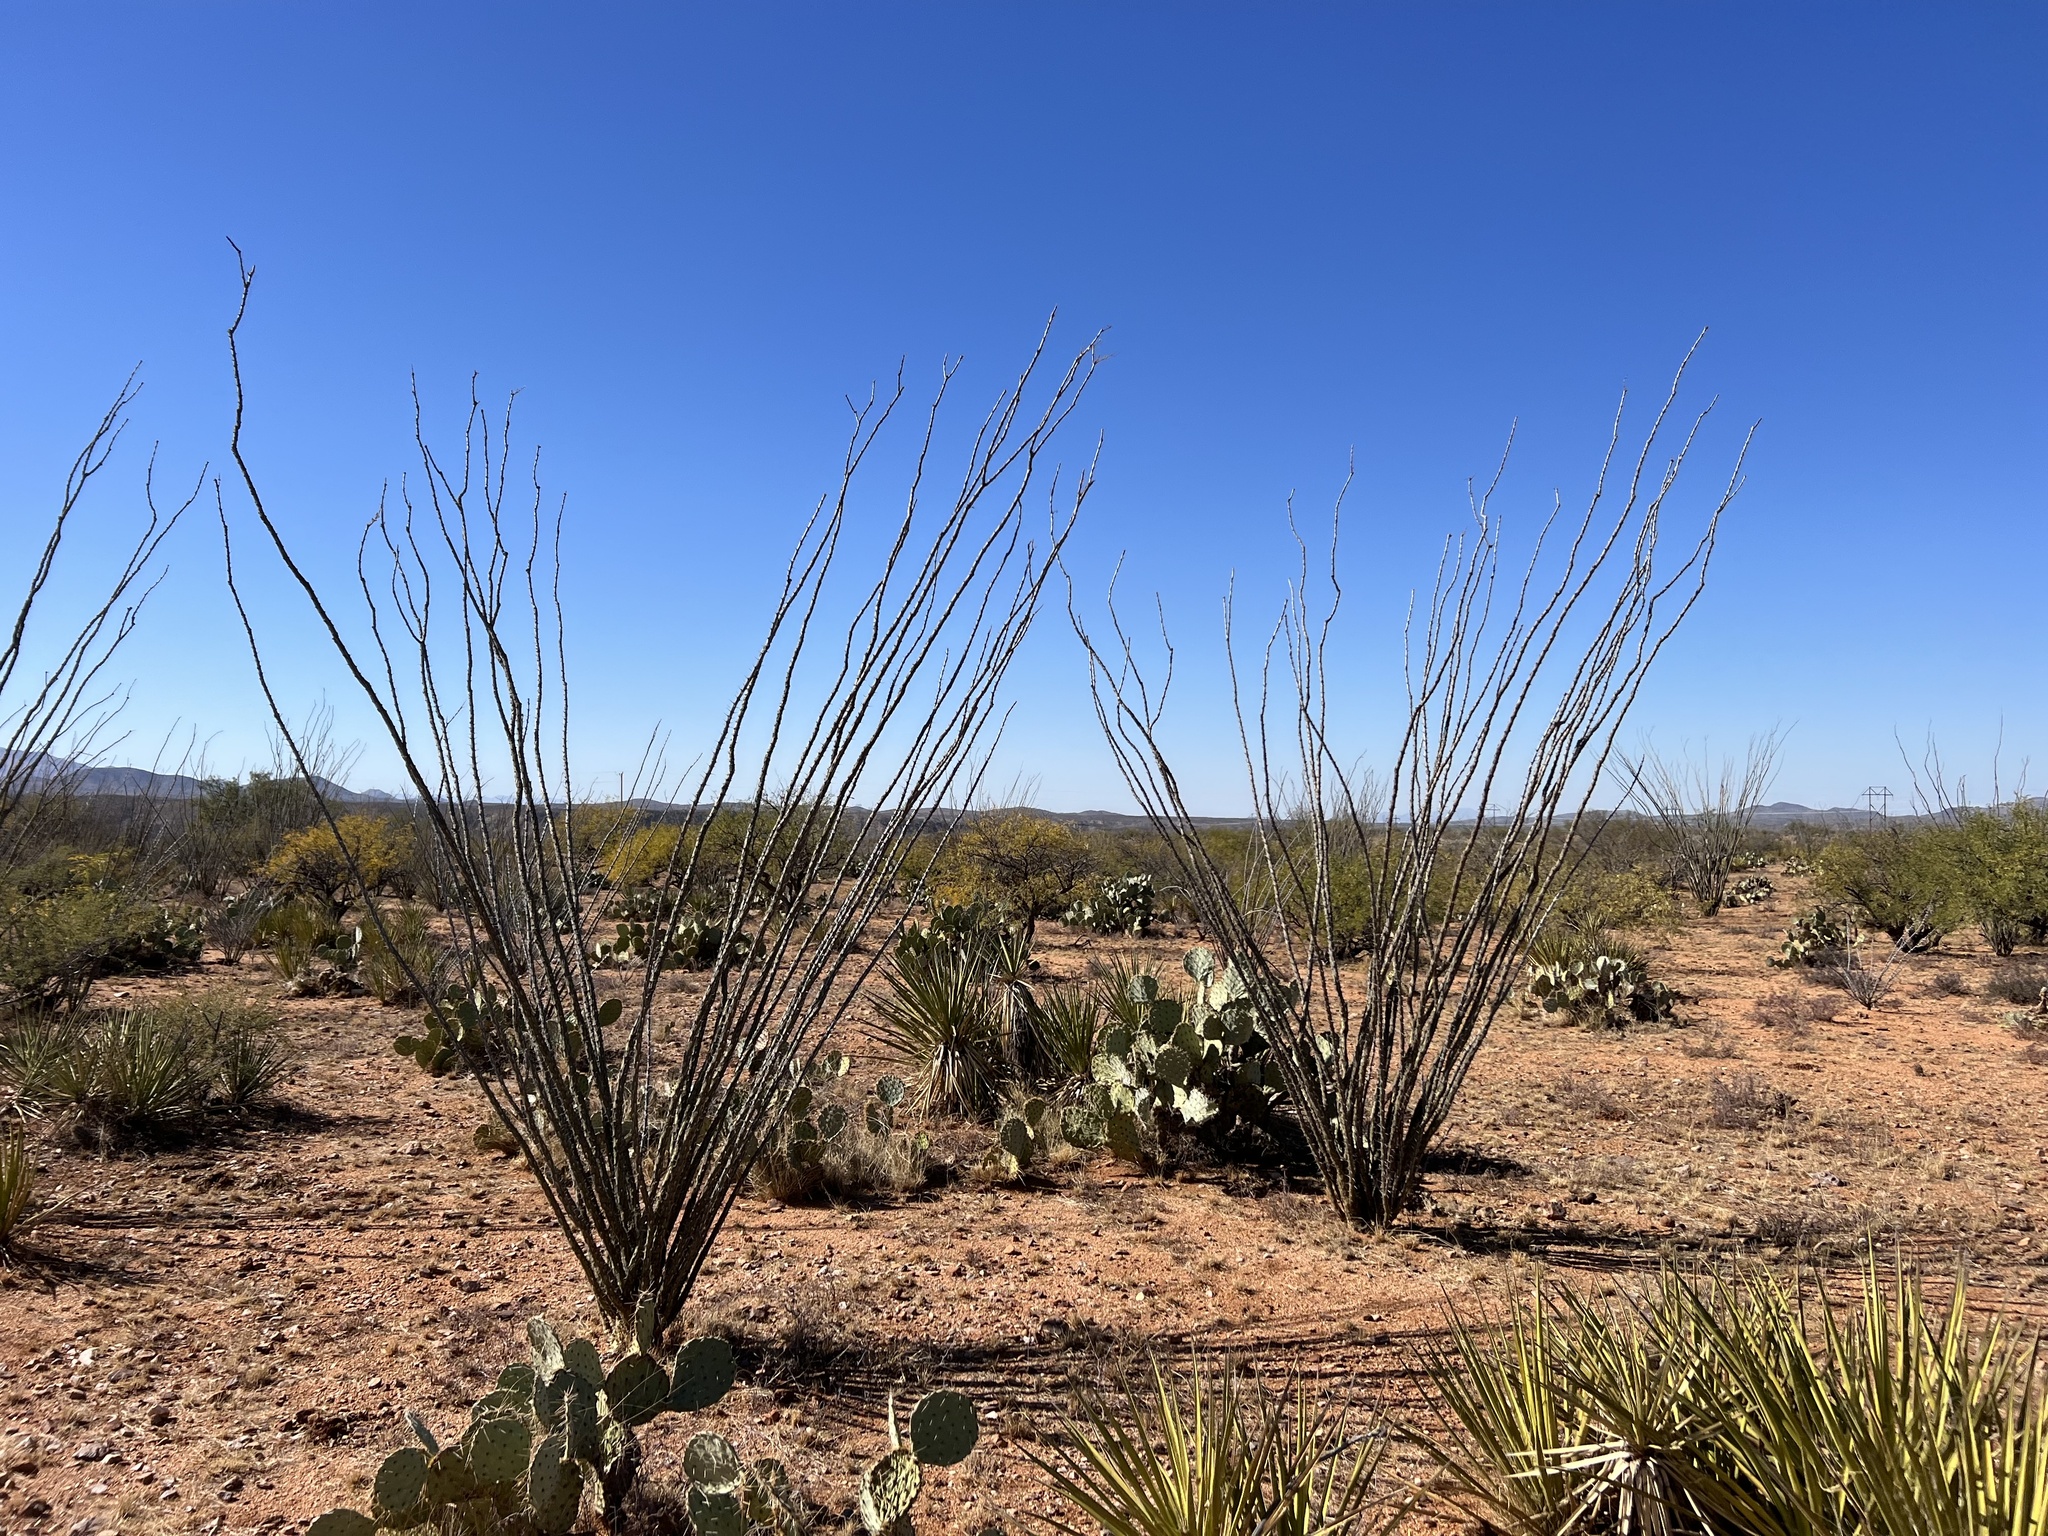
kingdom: Plantae
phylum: Tracheophyta
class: Magnoliopsida
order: Ericales
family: Fouquieriaceae
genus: Fouquieria
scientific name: Fouquieria splendens
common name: Vine-cactus
